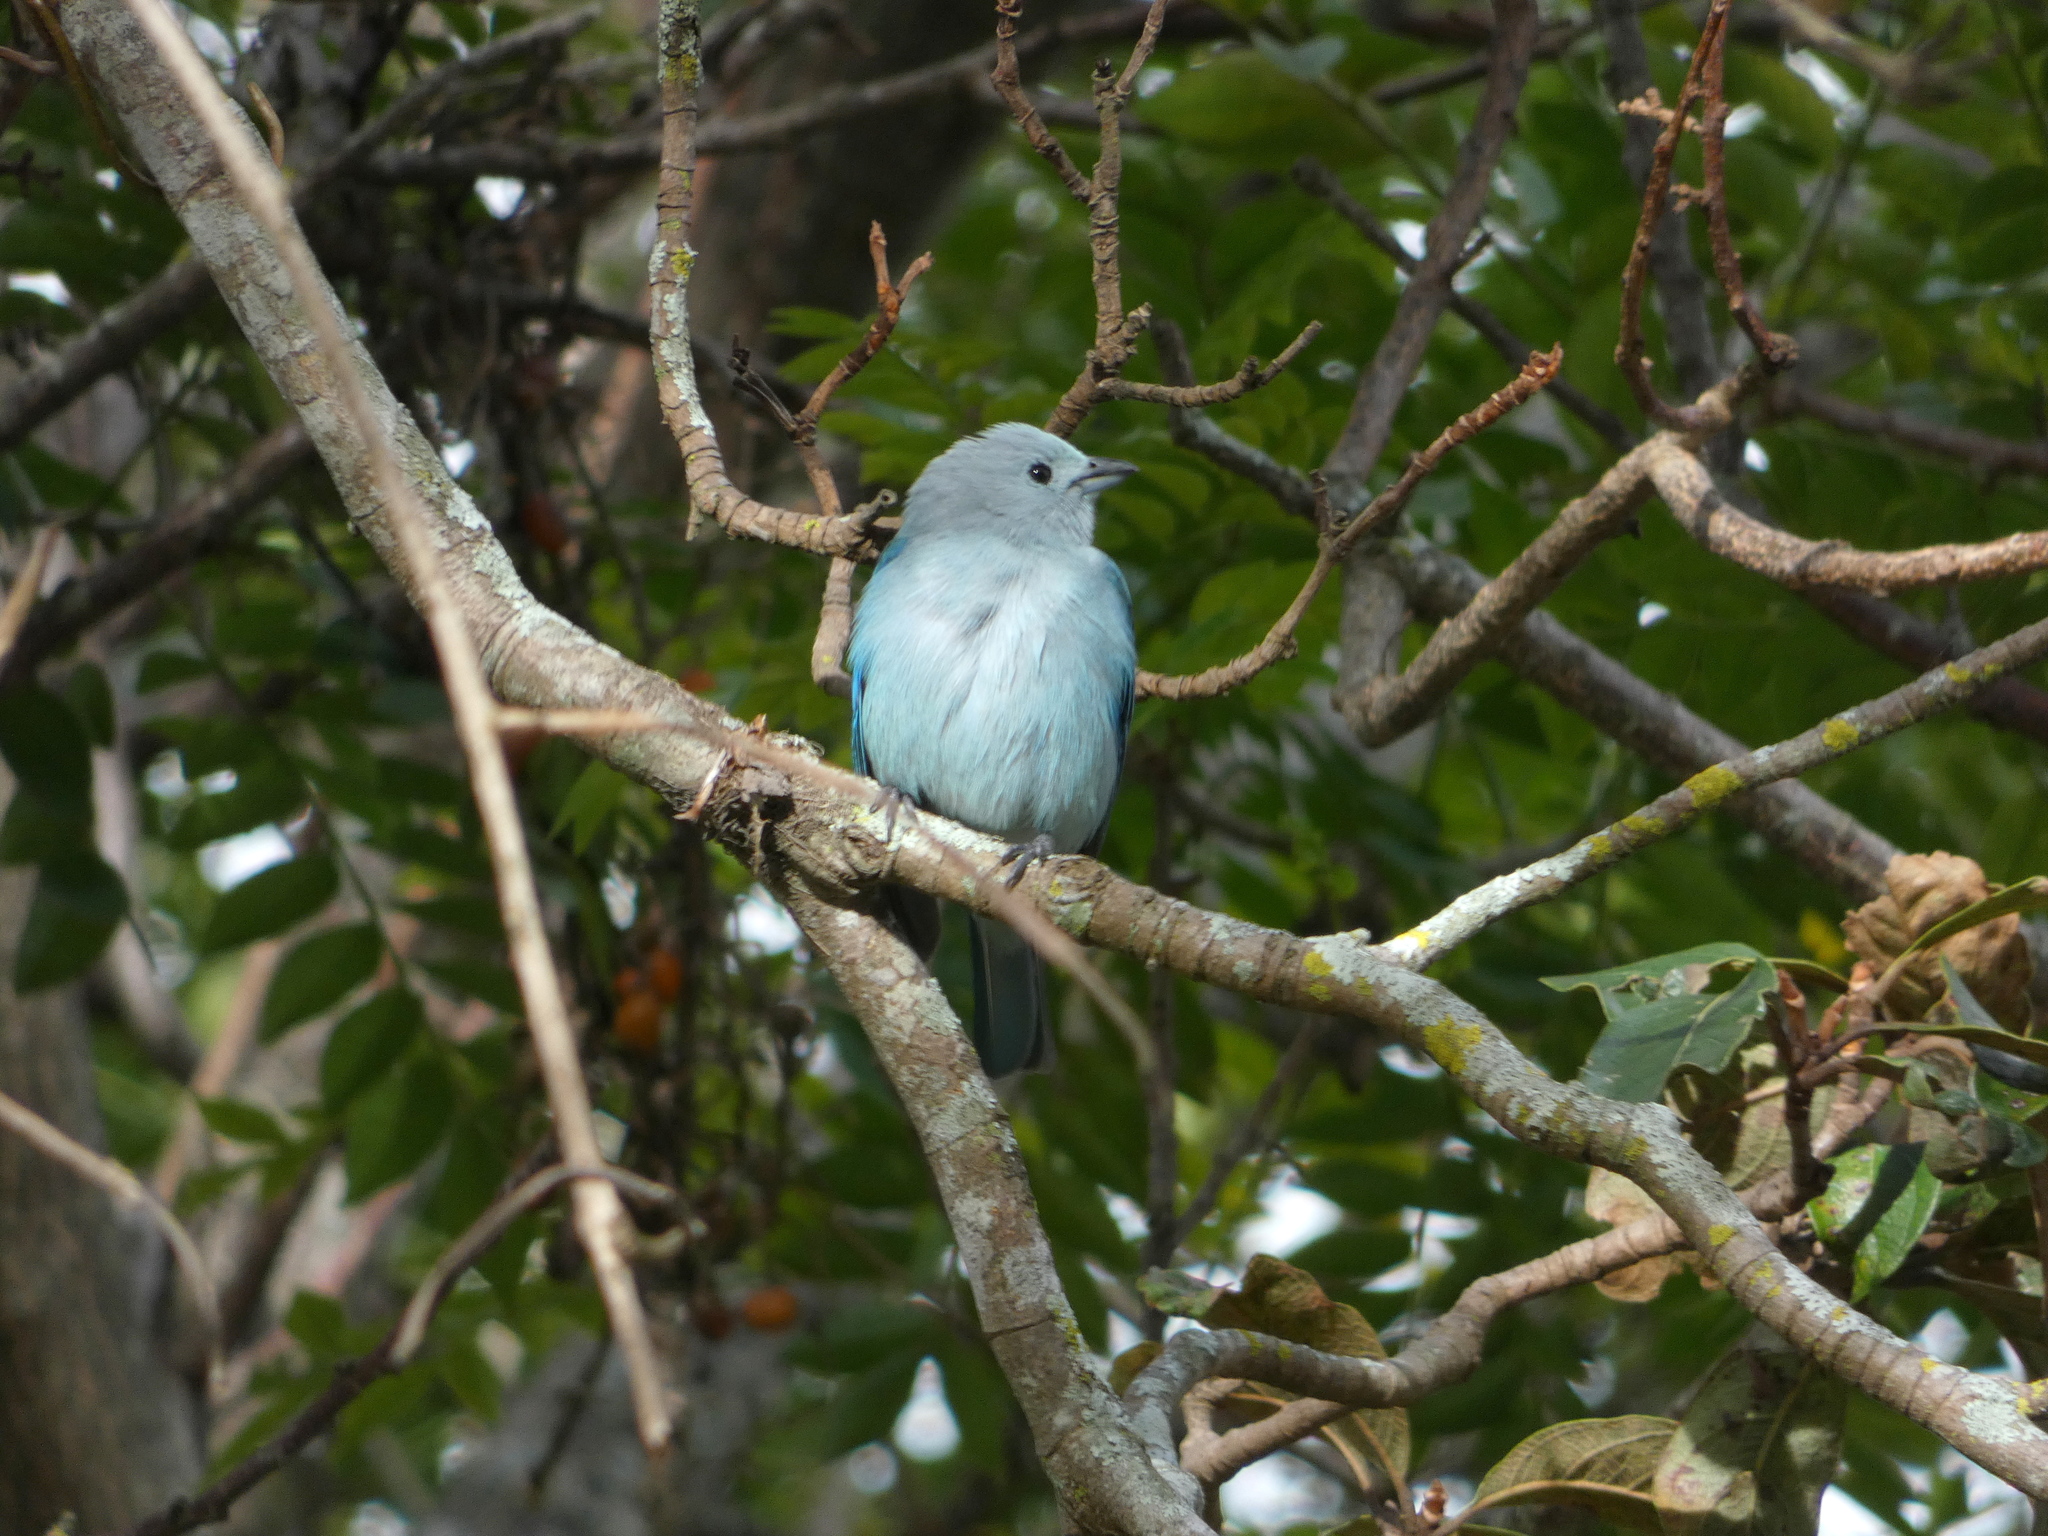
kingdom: Animalia
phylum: Chordata
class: Aves
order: Passeriformes
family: Thraupidae
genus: Thraupis
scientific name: Thraupis episcopus
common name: Blue-grey tanager
